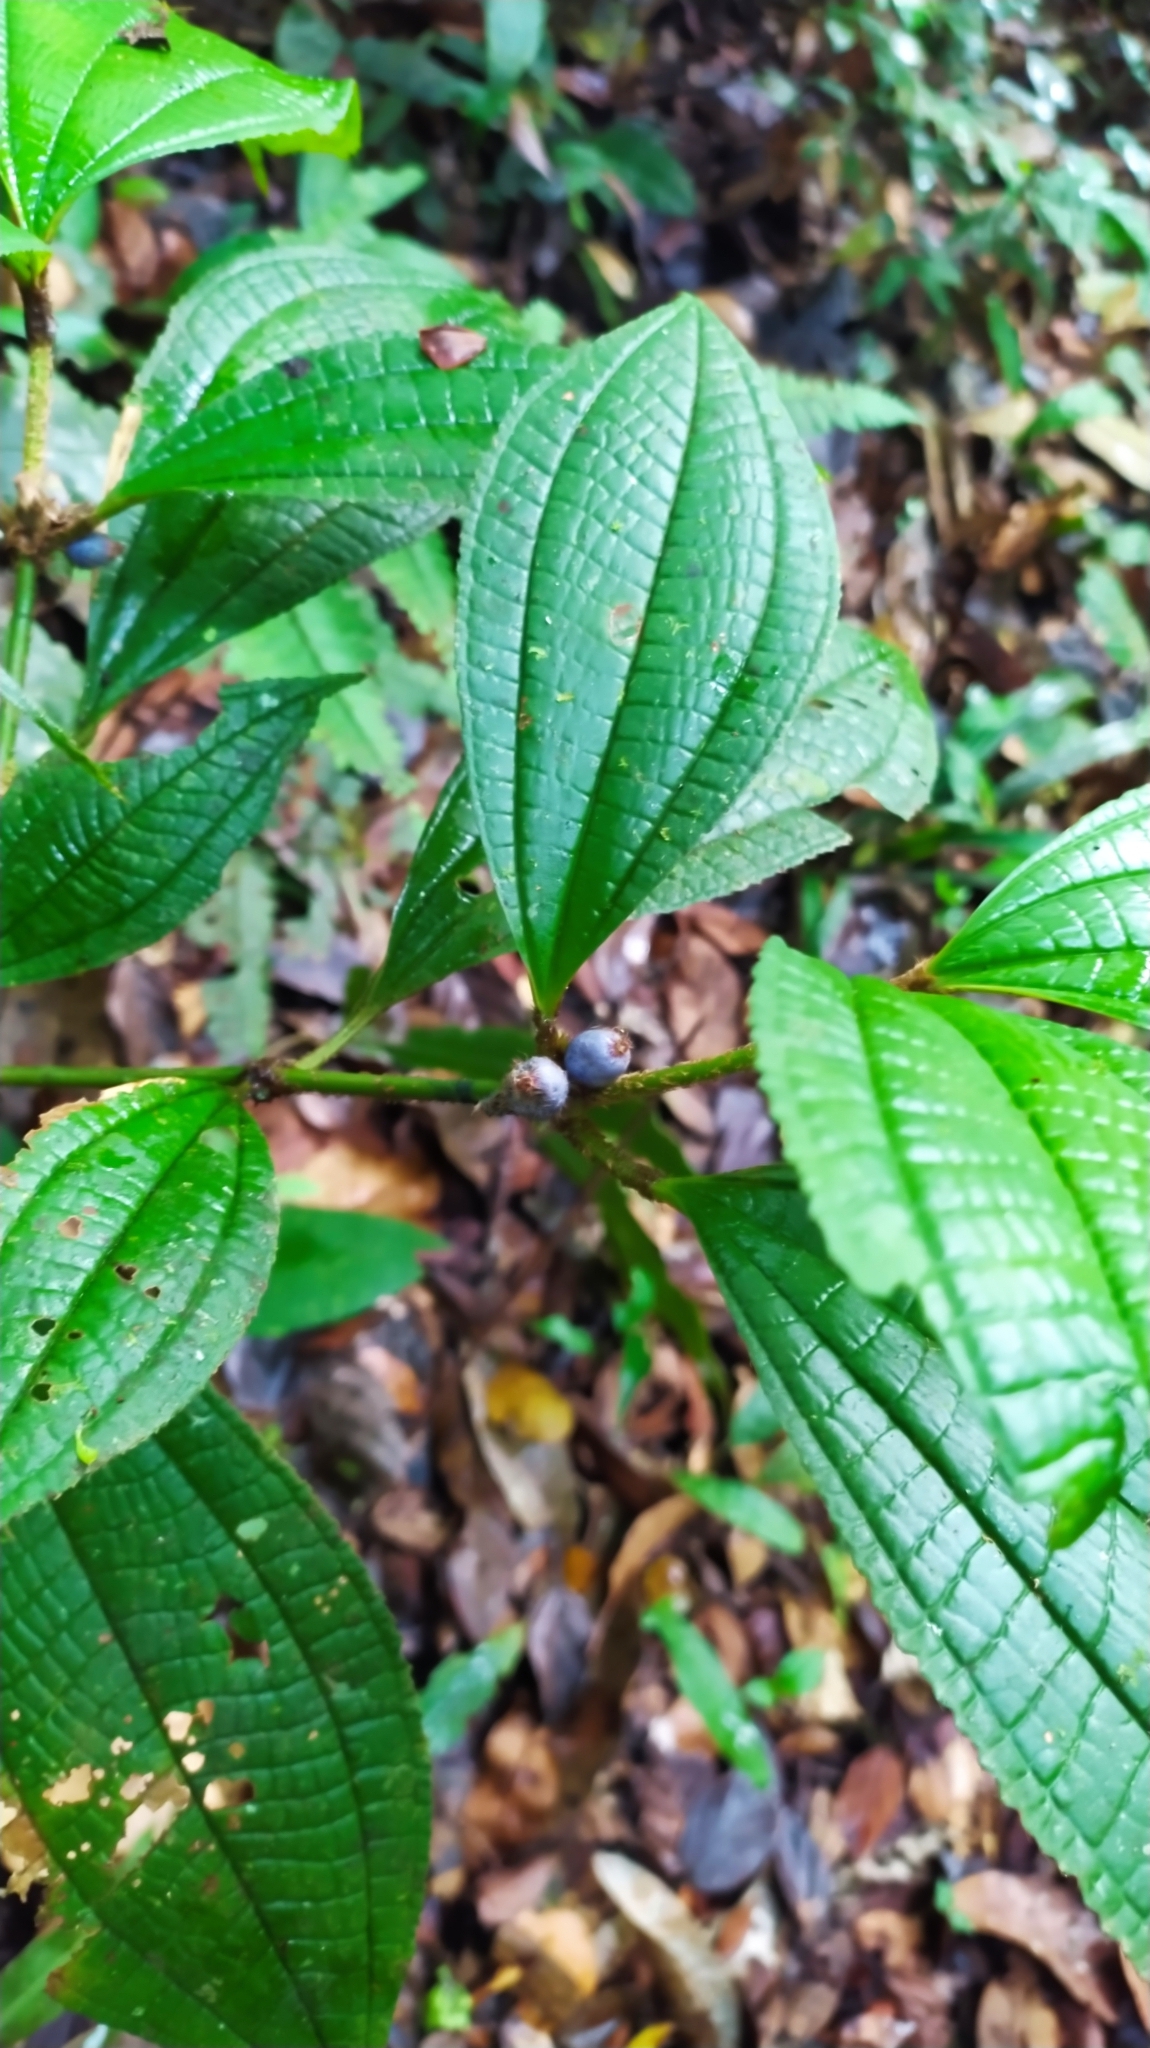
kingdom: Plantae
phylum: Tracheophyta
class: Magnoliopsida
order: Myrtales
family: Melastomataceae
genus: Miconia
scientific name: Miconia conglomerata
